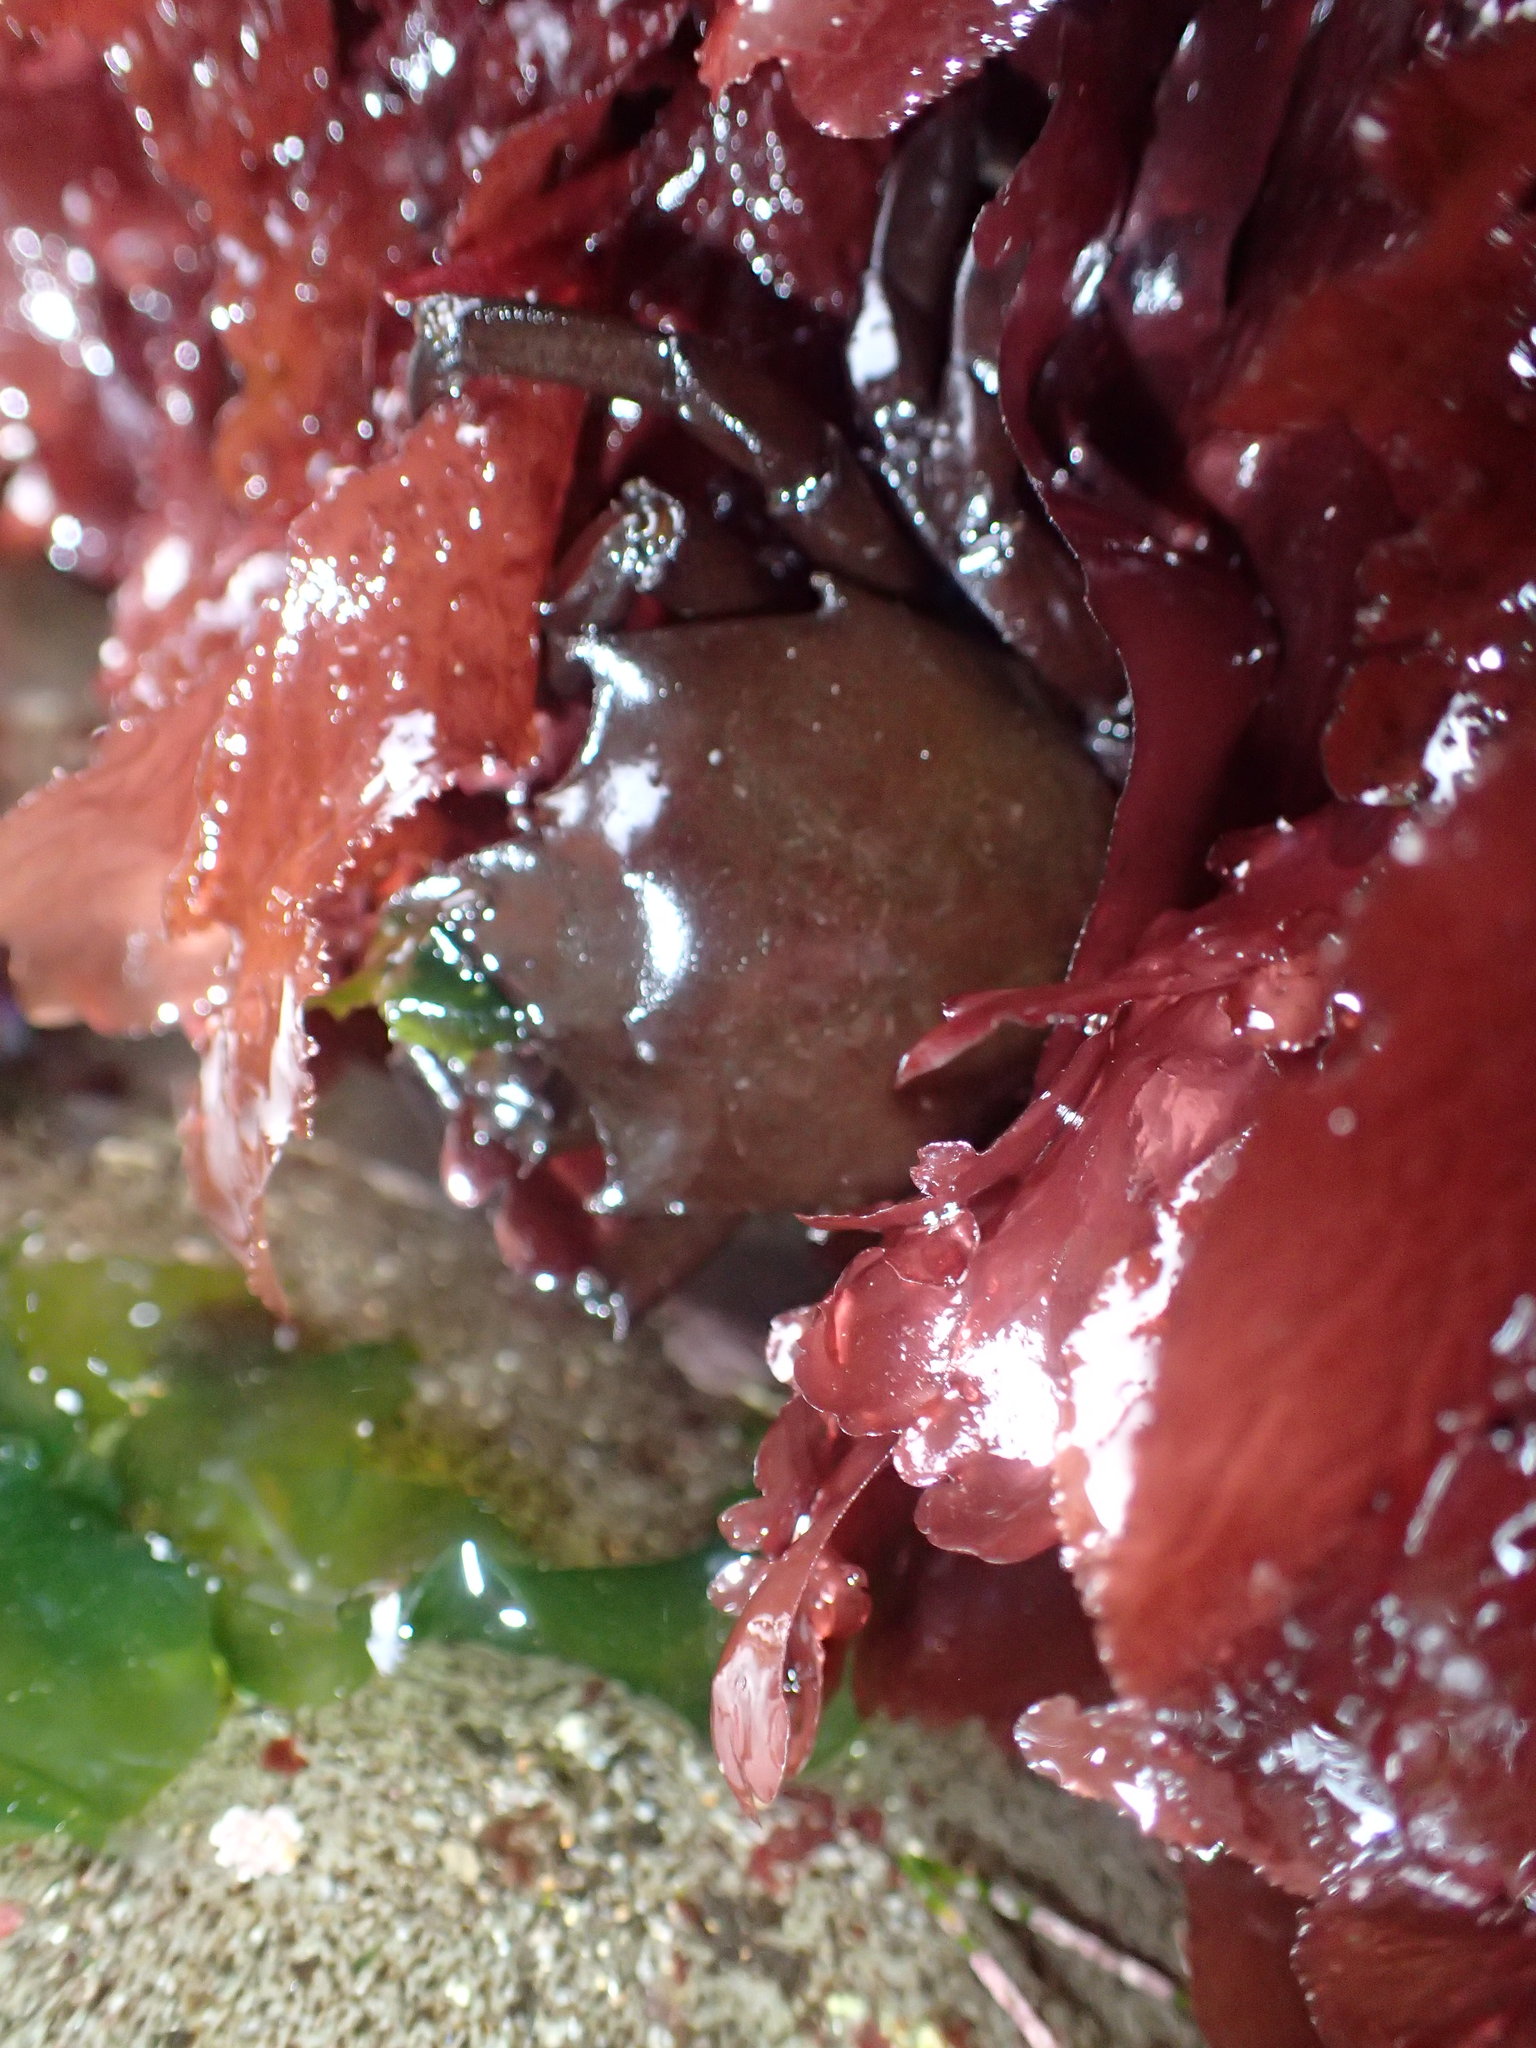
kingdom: Animalia
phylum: Arthropoda
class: Malacostraca
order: Decapoda
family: Epialtidae
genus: Pugettia
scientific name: Pugettia producta
